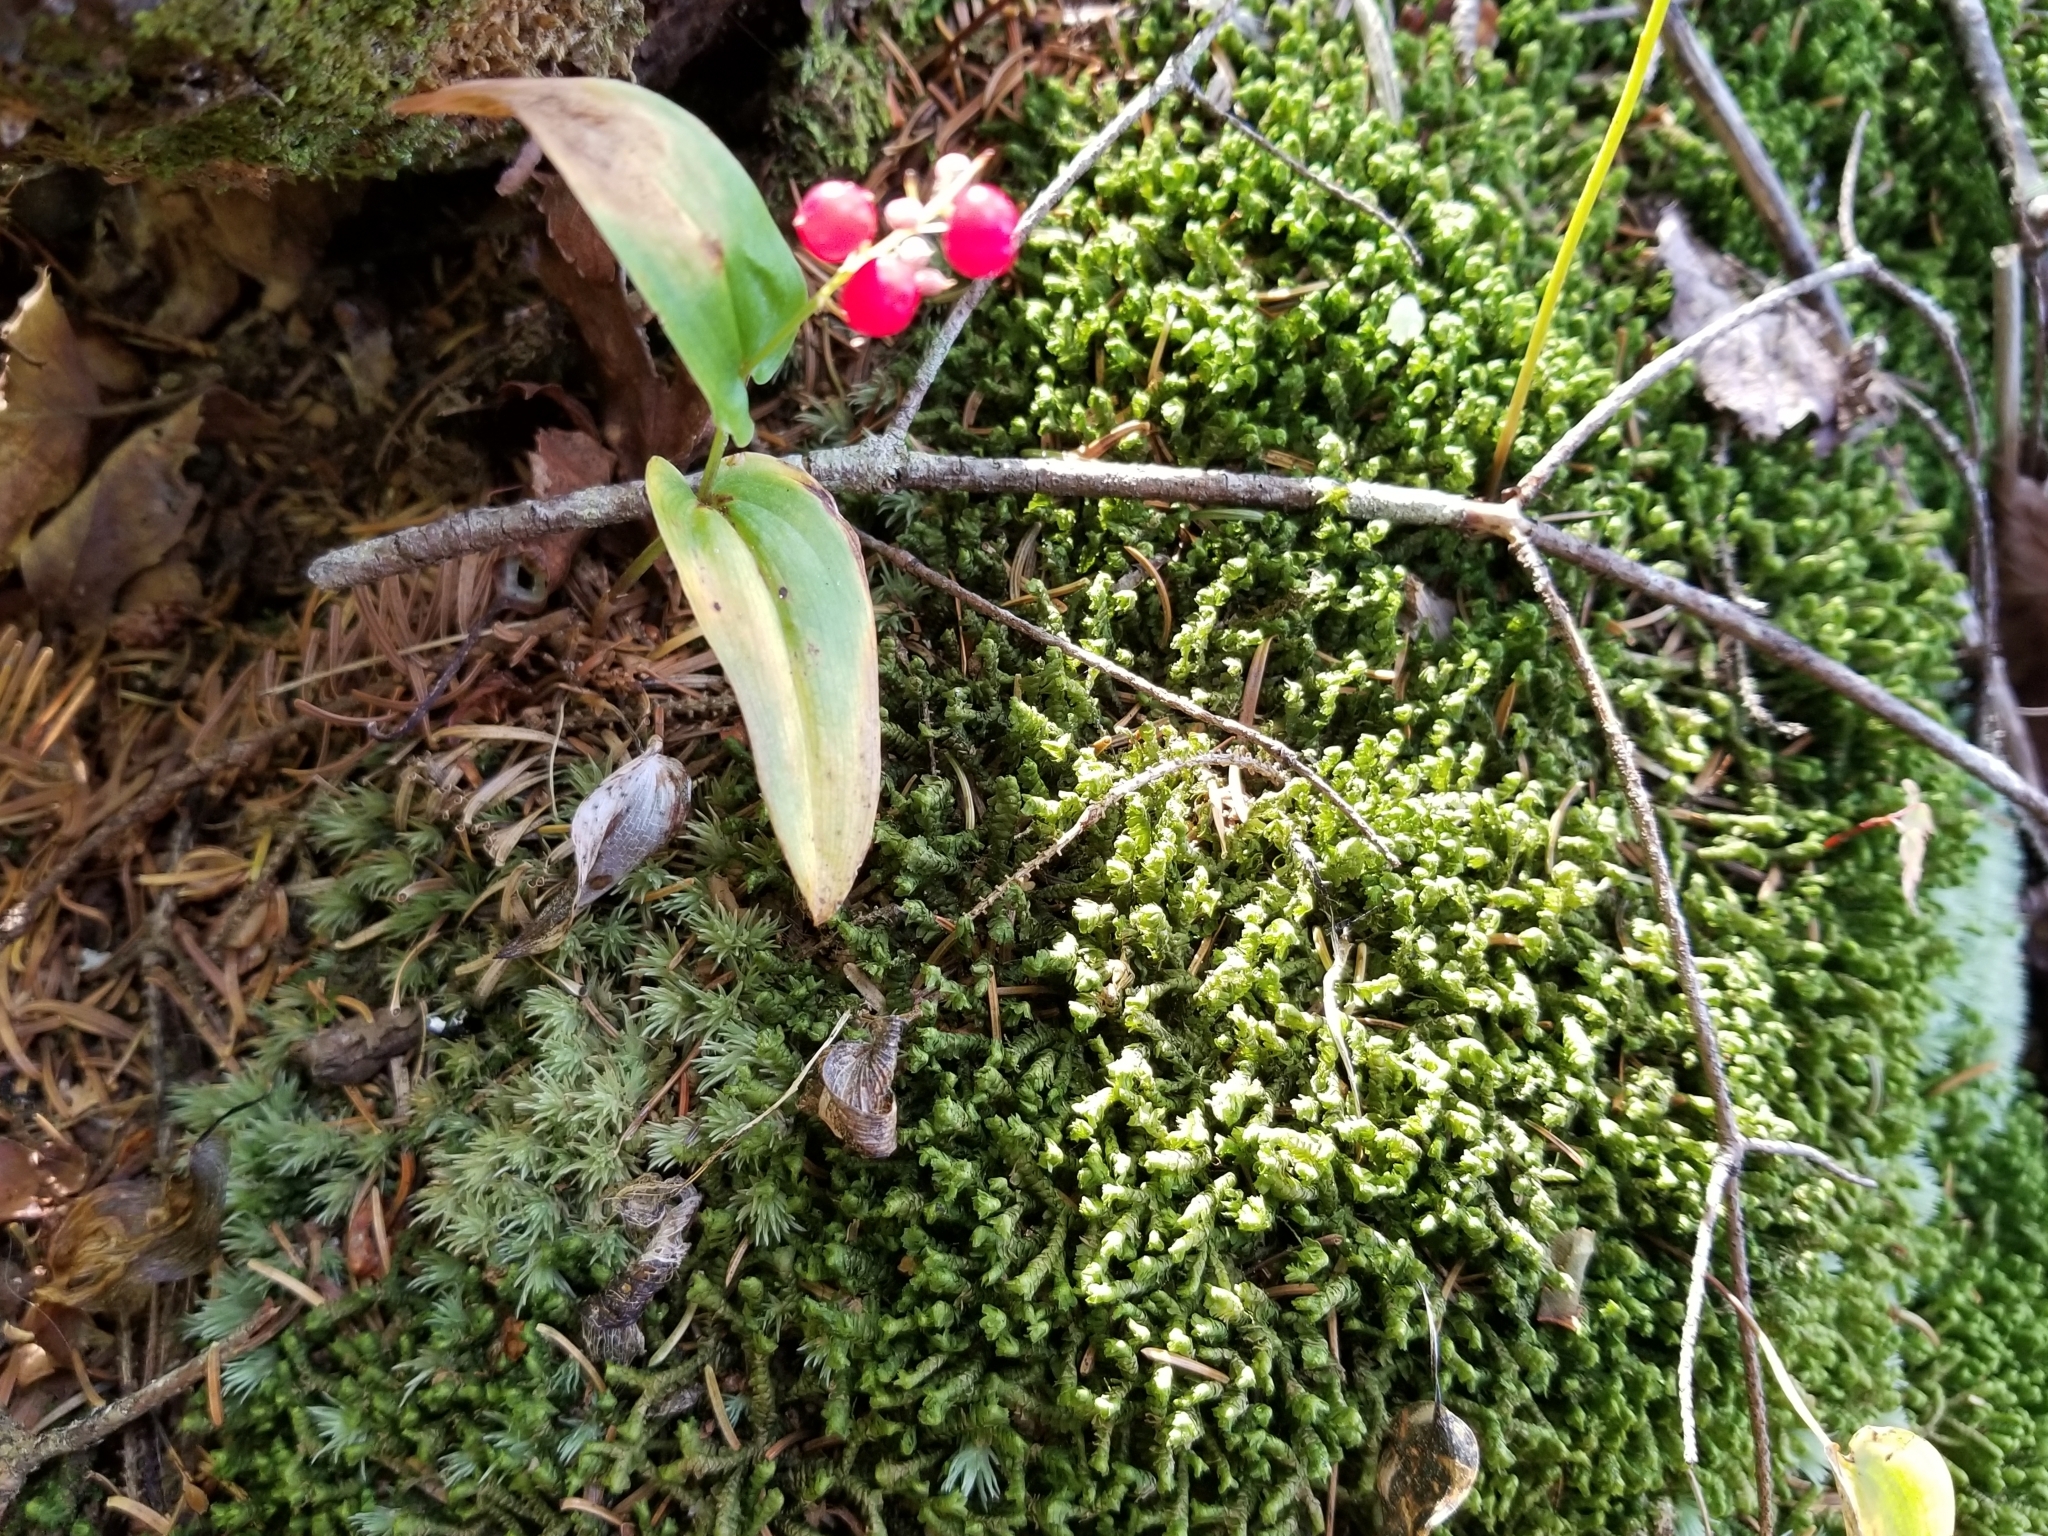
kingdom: Plantae
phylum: Tracheophyta
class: Liliopsida
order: Asparagales
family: Asparagaceae
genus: Maianthemum
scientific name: Maianthemum canadense
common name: False lily-of-the-valley
